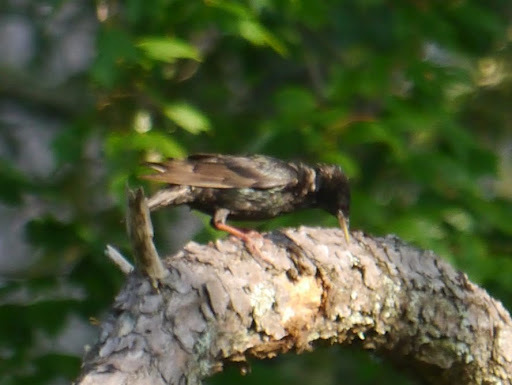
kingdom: Animalia
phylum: Chordata
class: Aves
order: Passeriformes
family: Sturnidae
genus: Sturnus
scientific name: Sturnus vulgaris
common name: Common starling
